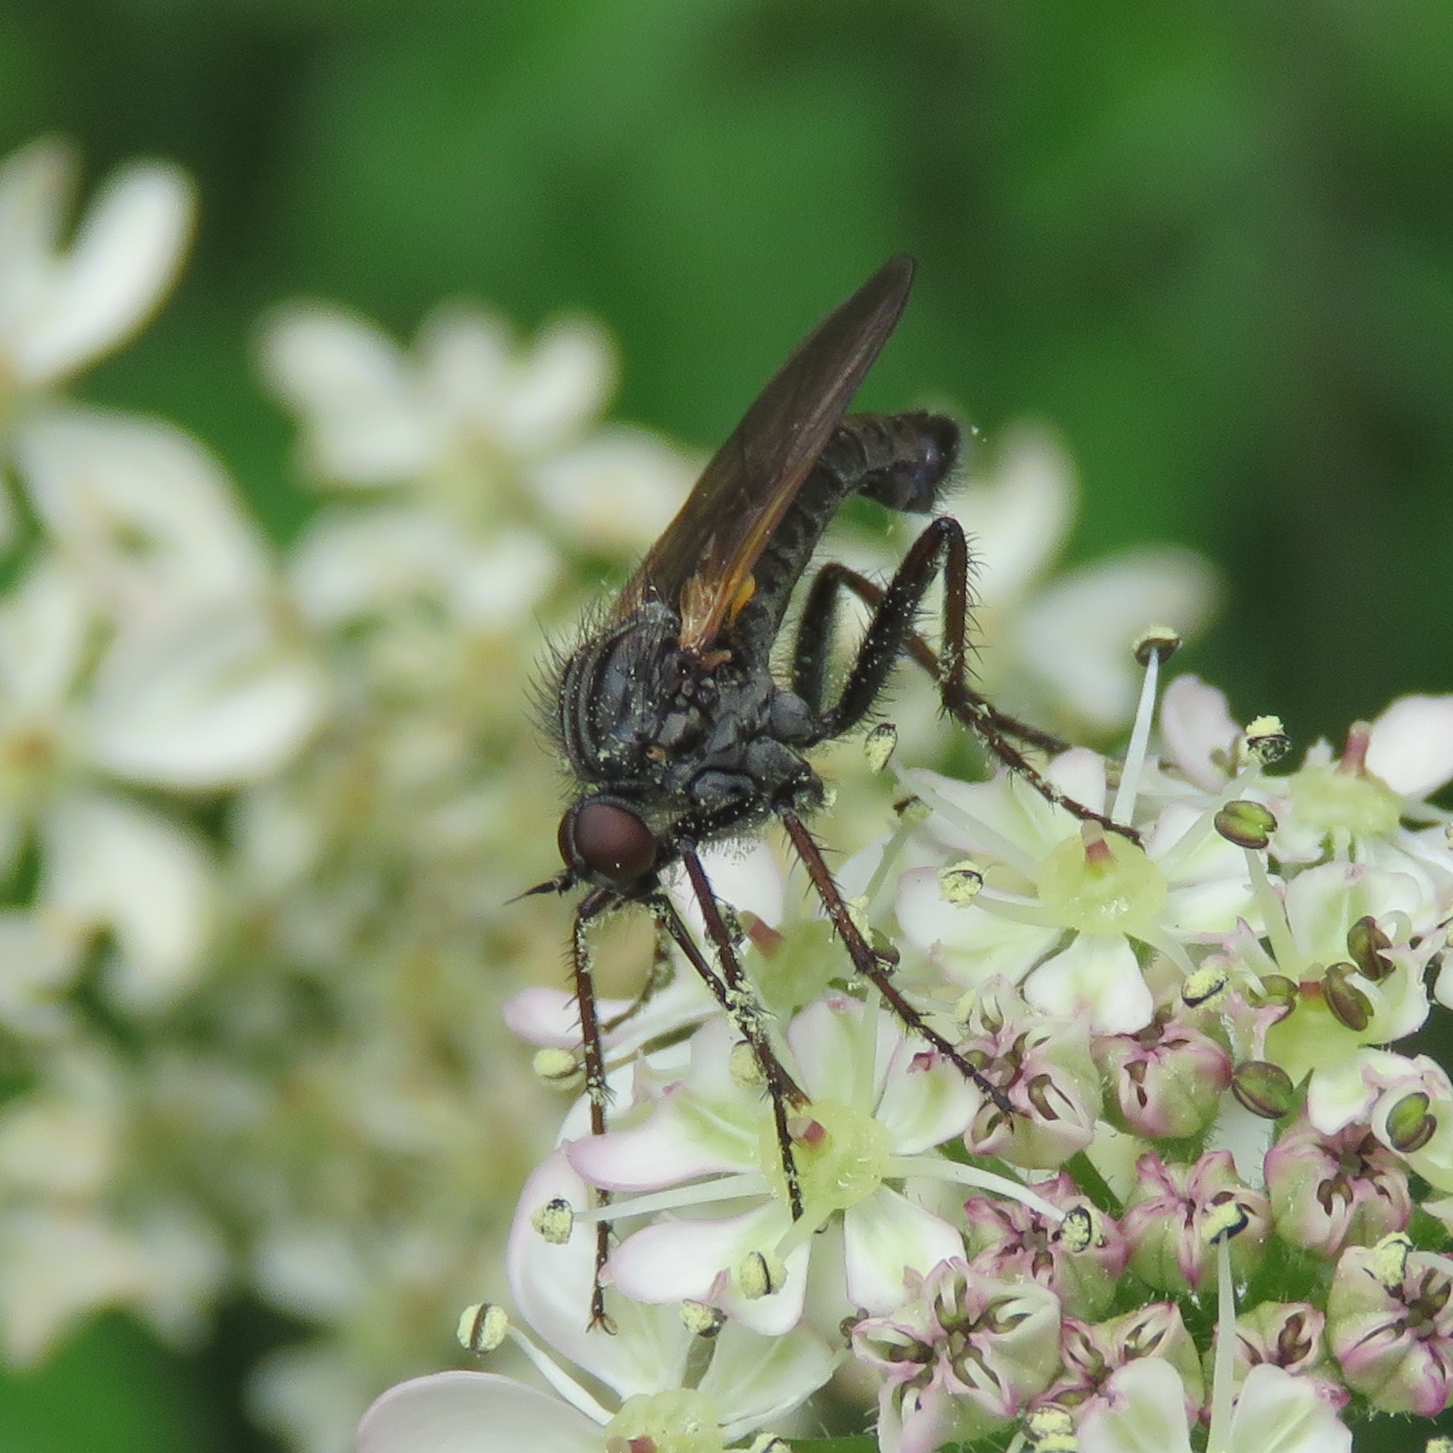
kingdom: Animalia
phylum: Arthropoda
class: Insecta
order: Diptera
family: Empididae
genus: Empis
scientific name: Empis tessellata
